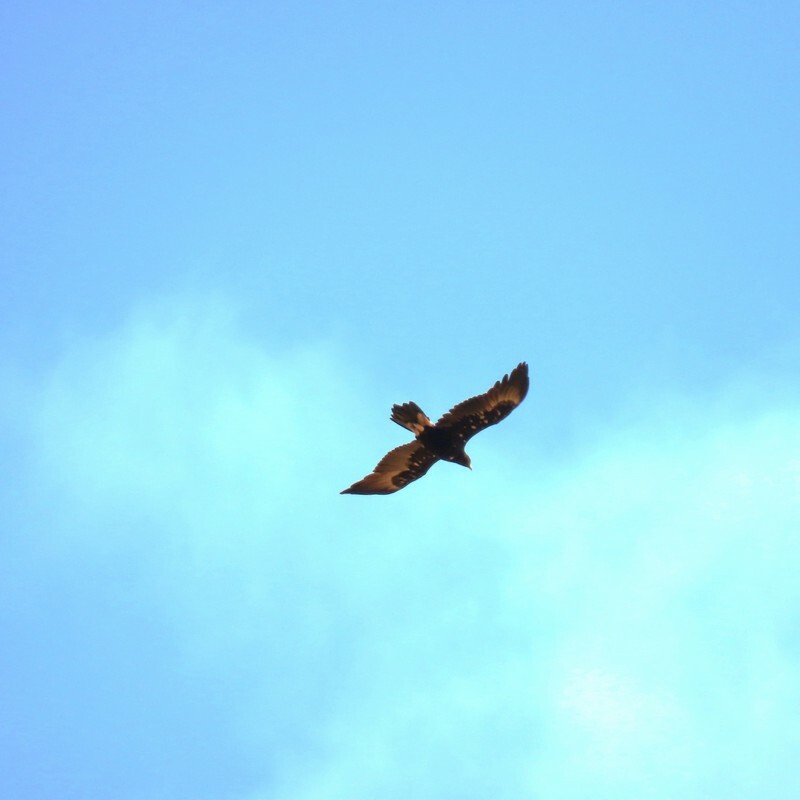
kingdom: Animalia
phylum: Chordata
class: Aves
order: Accipitriformes
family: Accipitridae
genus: Aquila
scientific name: Aquila audax
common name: Wedge-tailed eagle
